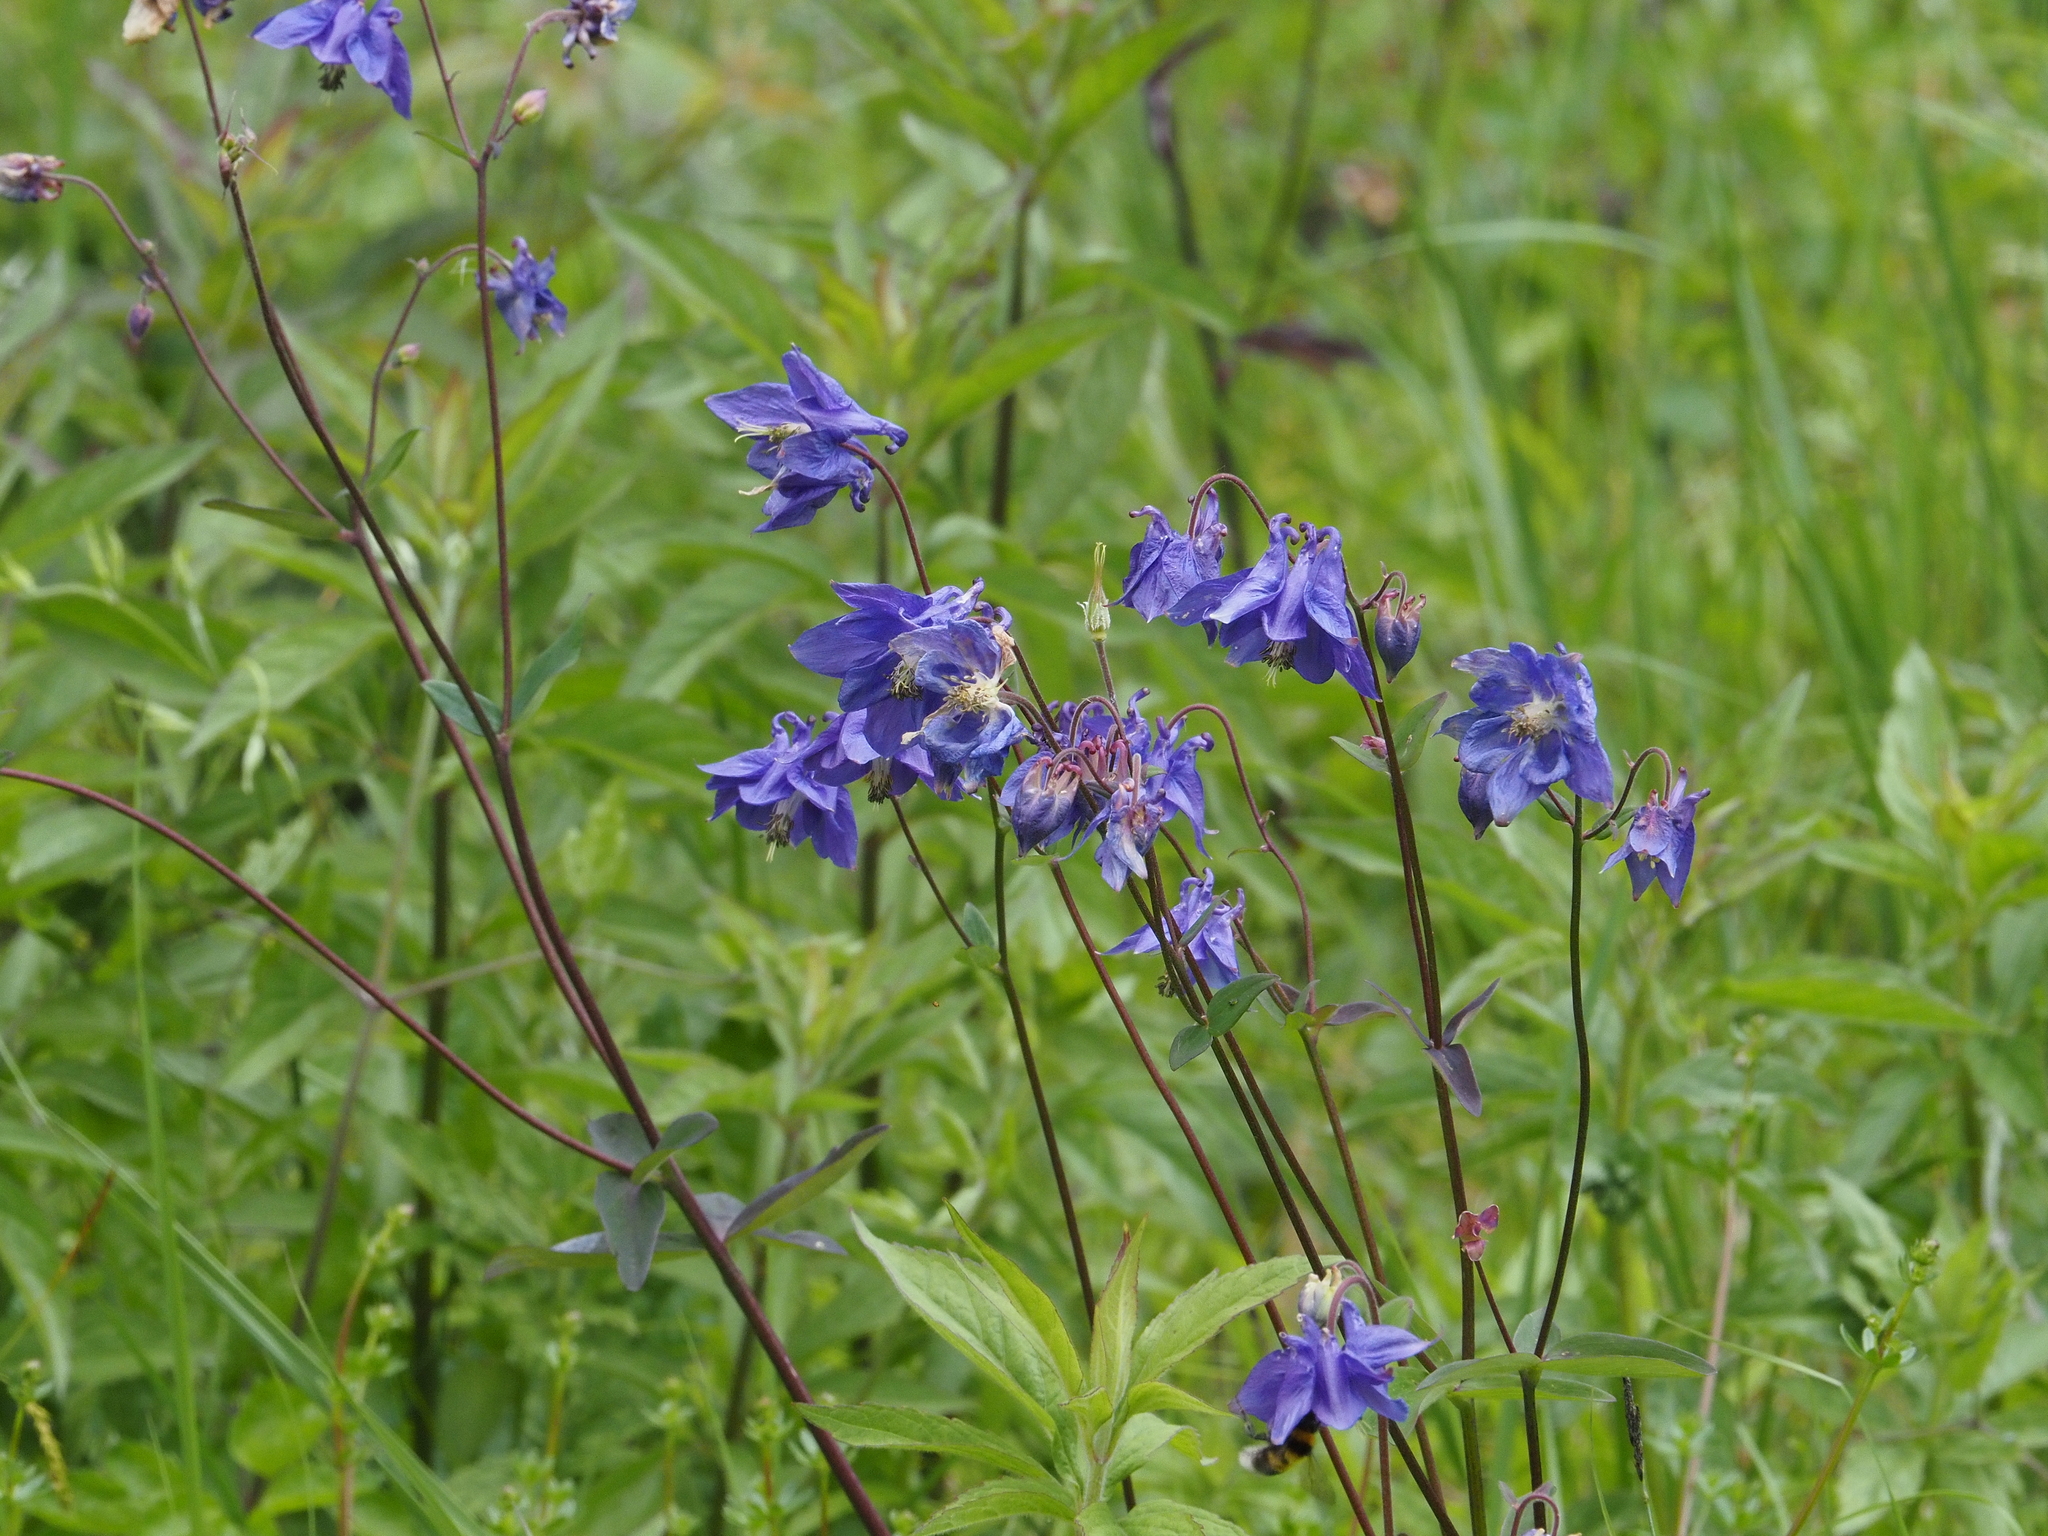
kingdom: Plantae
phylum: Tracheophyta
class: Magnoliopsida
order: Ranunculales
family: Ranunculaceae
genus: Aquilegia
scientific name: Aquilegia vulgaris
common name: Columbine
